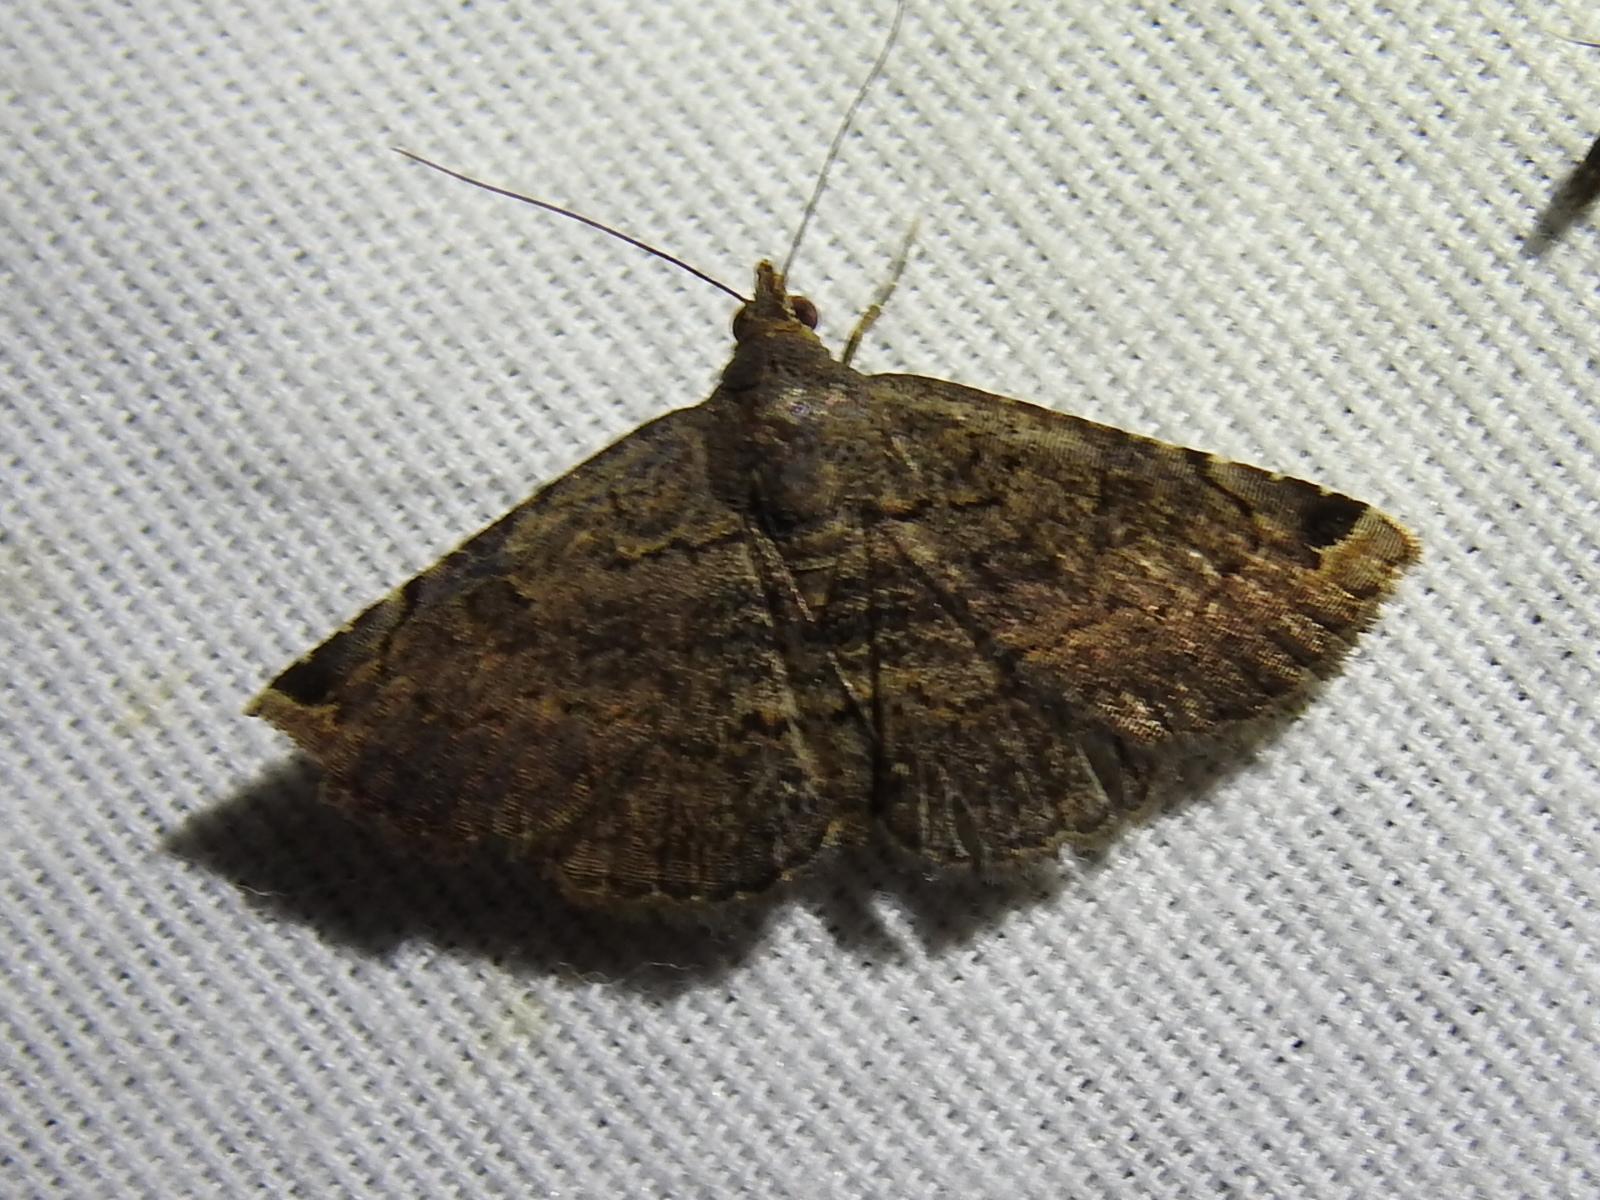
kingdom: Animalia
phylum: Arthropoda
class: Insecta
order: Lepidoptera
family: Erebidae
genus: Toxonprucha
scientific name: Toxonprucha crudelis
